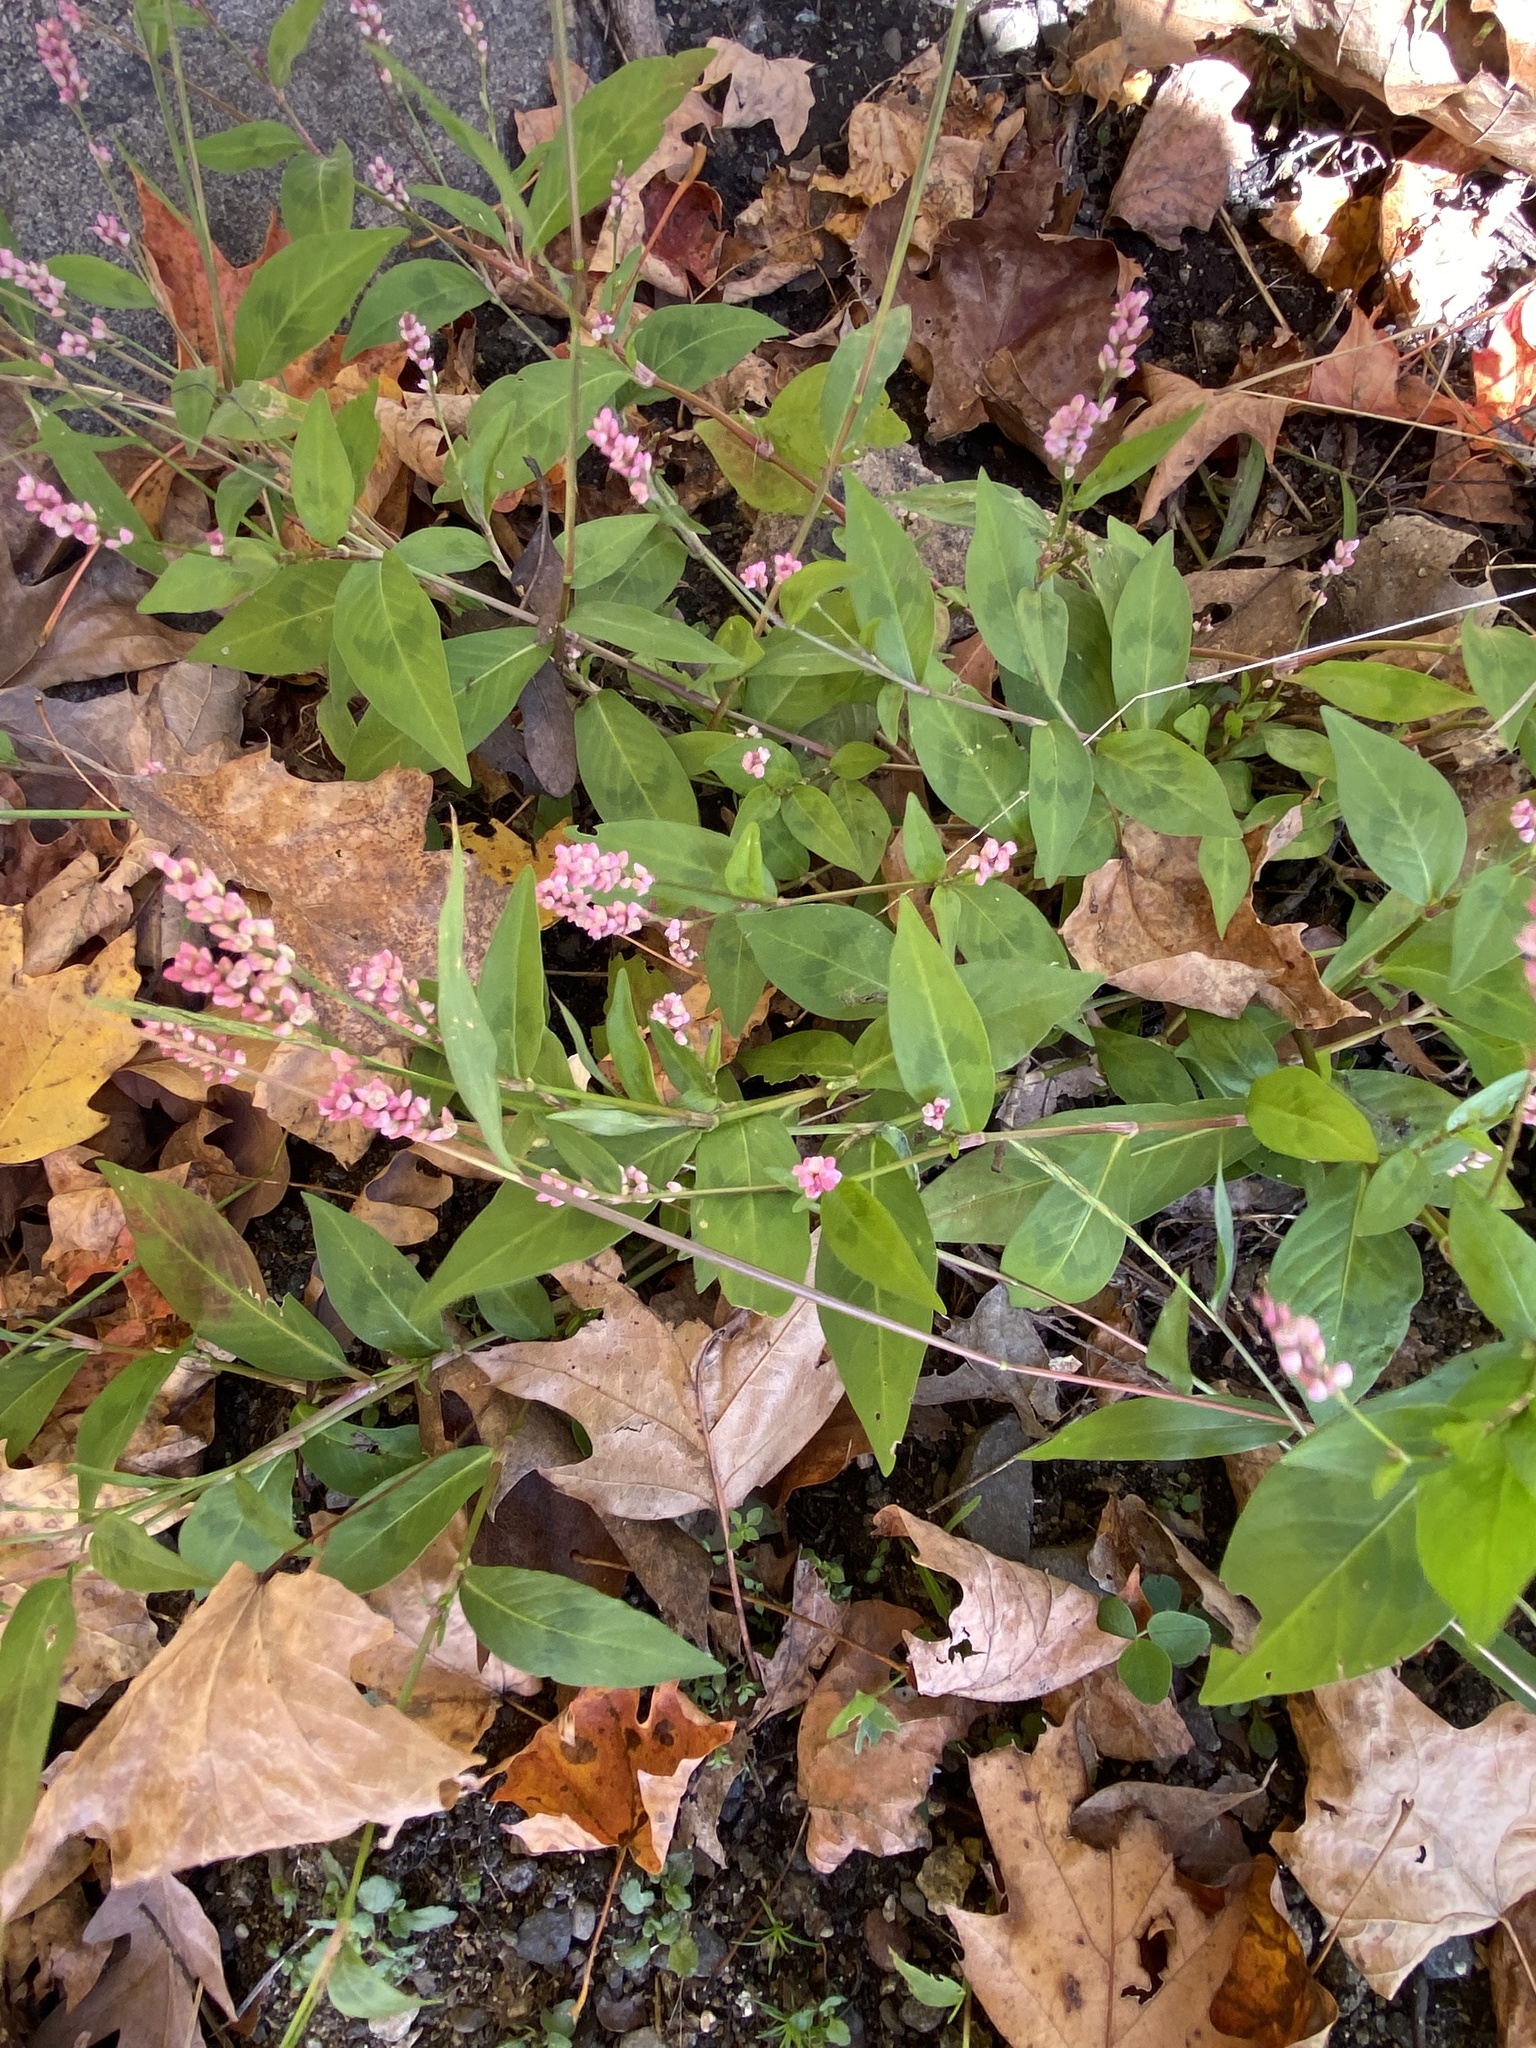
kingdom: Plantae
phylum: Tracheophyta
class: Magnoliopsida
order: Caryophyllales
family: Polygonaceae
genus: Persicaria
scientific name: Persicaria longiseta
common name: Bristly lady's-thumb
